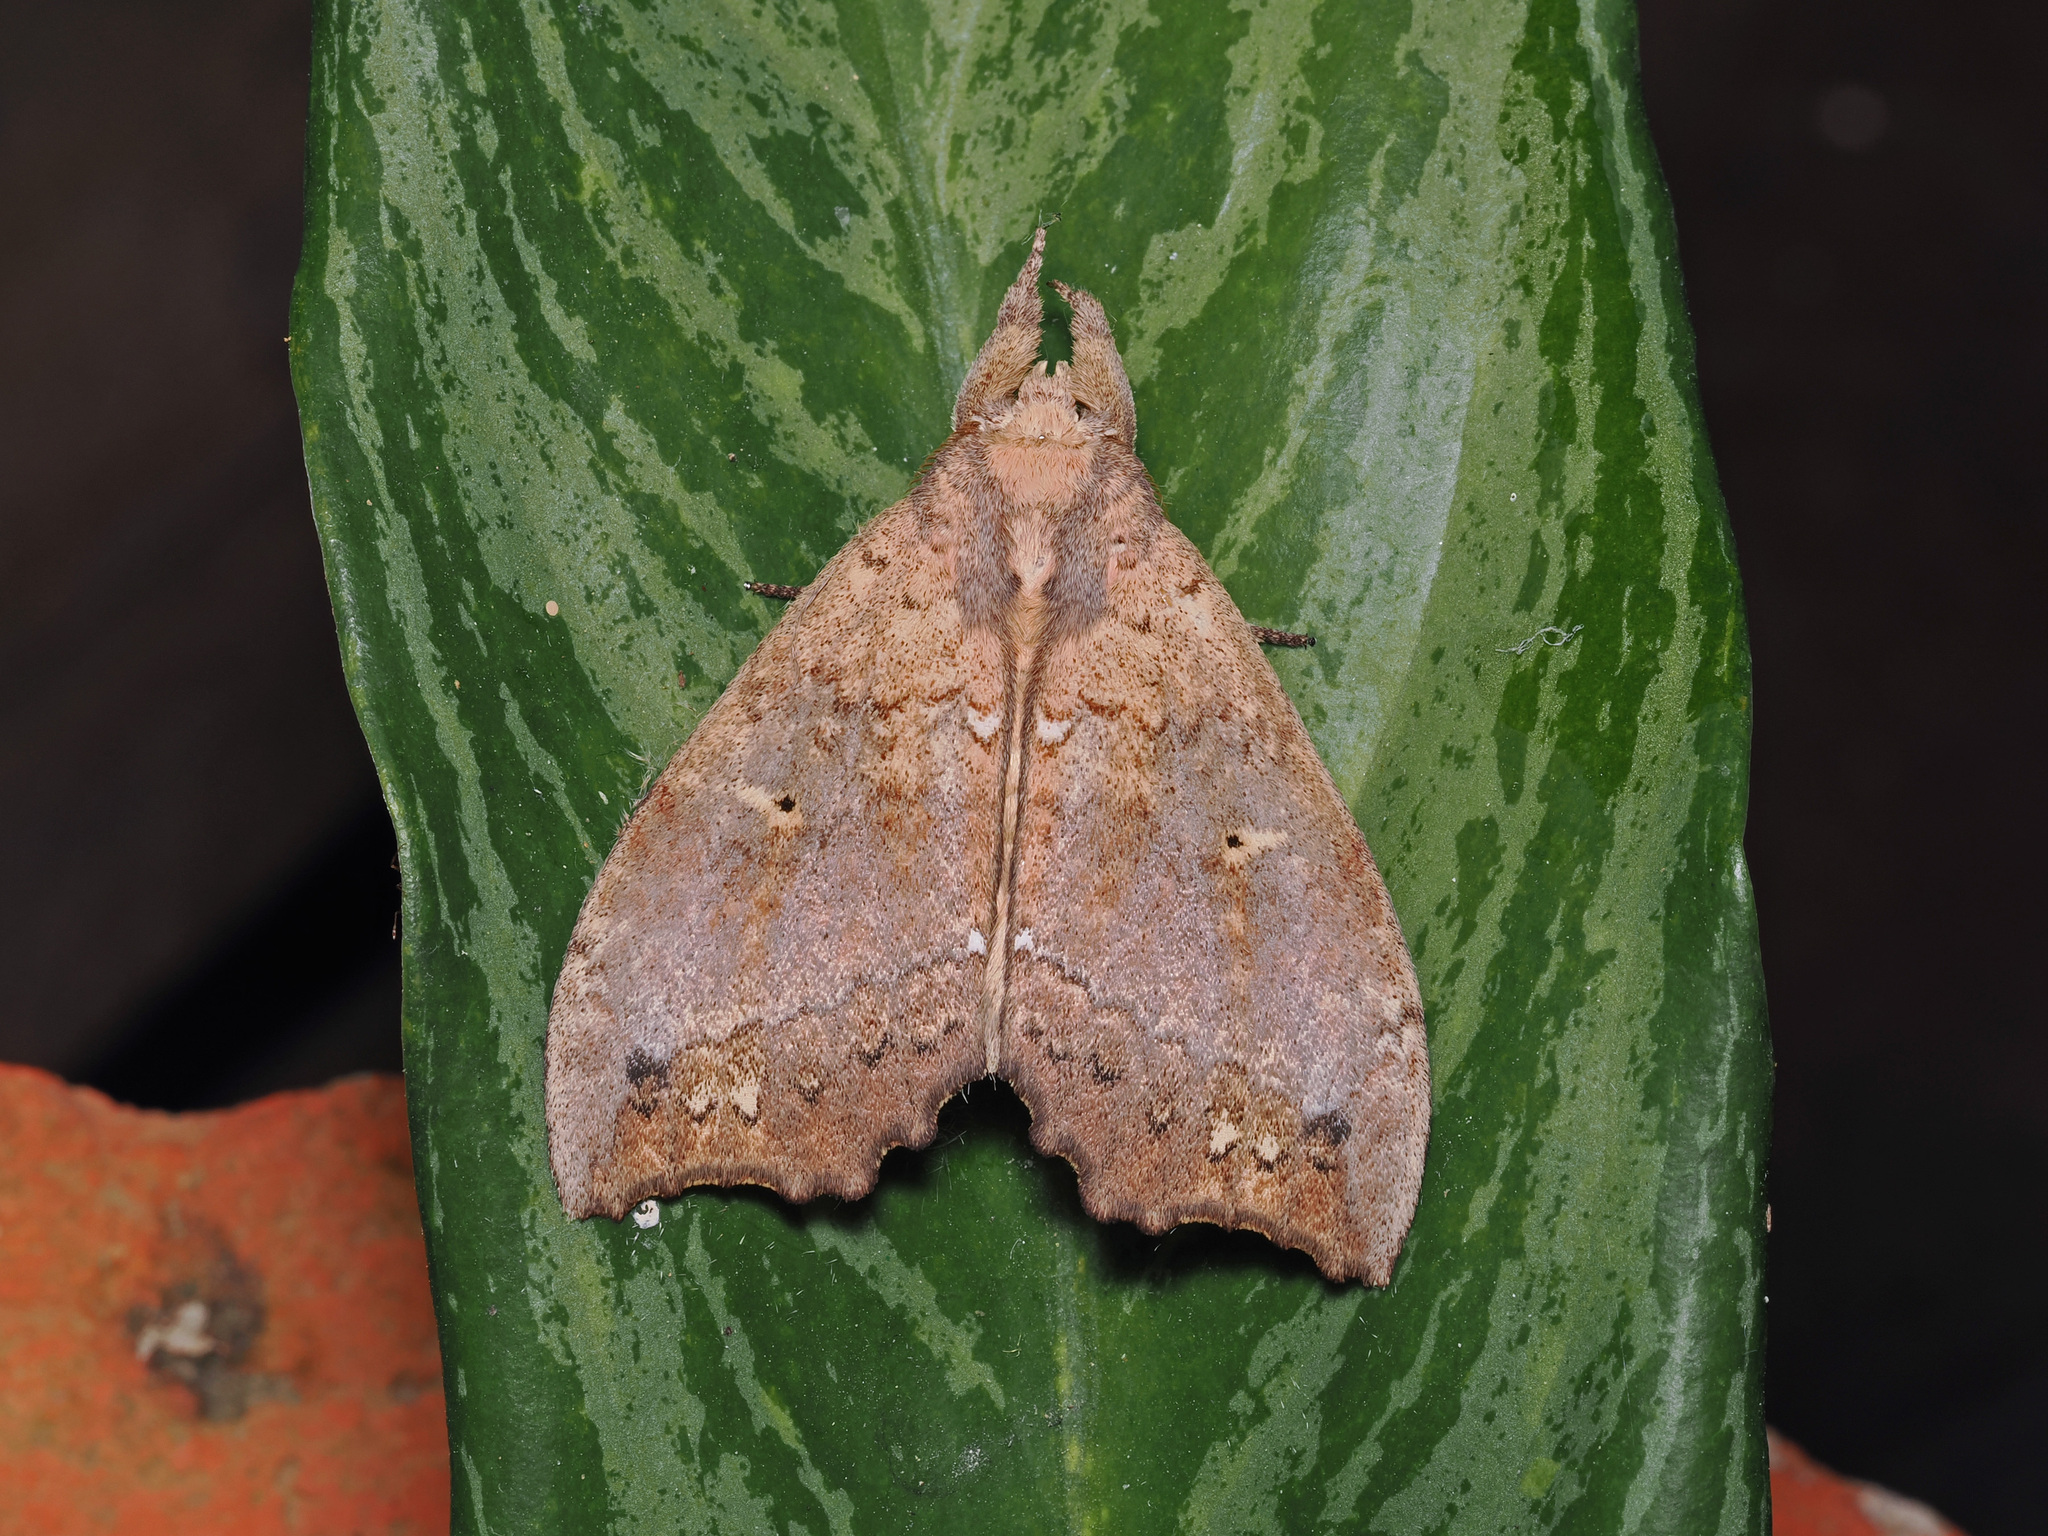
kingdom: Animalia
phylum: Arthropoda
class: Insecta
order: Lepidoptera
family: Notodontidae
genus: Gangarides
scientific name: Gangarides vardena
